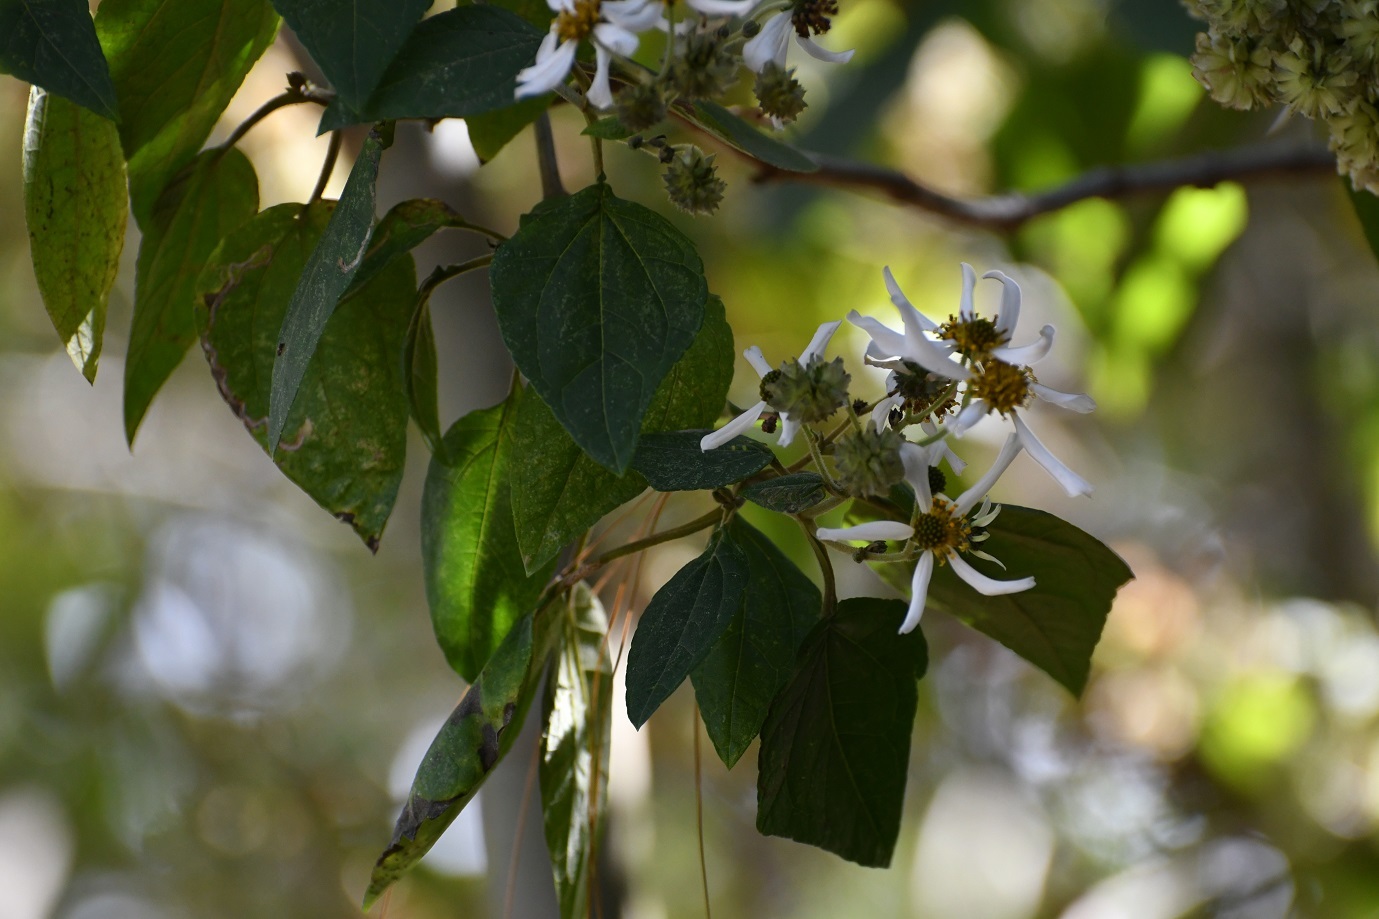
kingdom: Plantae
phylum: Tracheophyta
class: Magnoliopsida
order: Asterales
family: Asteraceae
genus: Montanoa
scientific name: Montanoa leucantha
